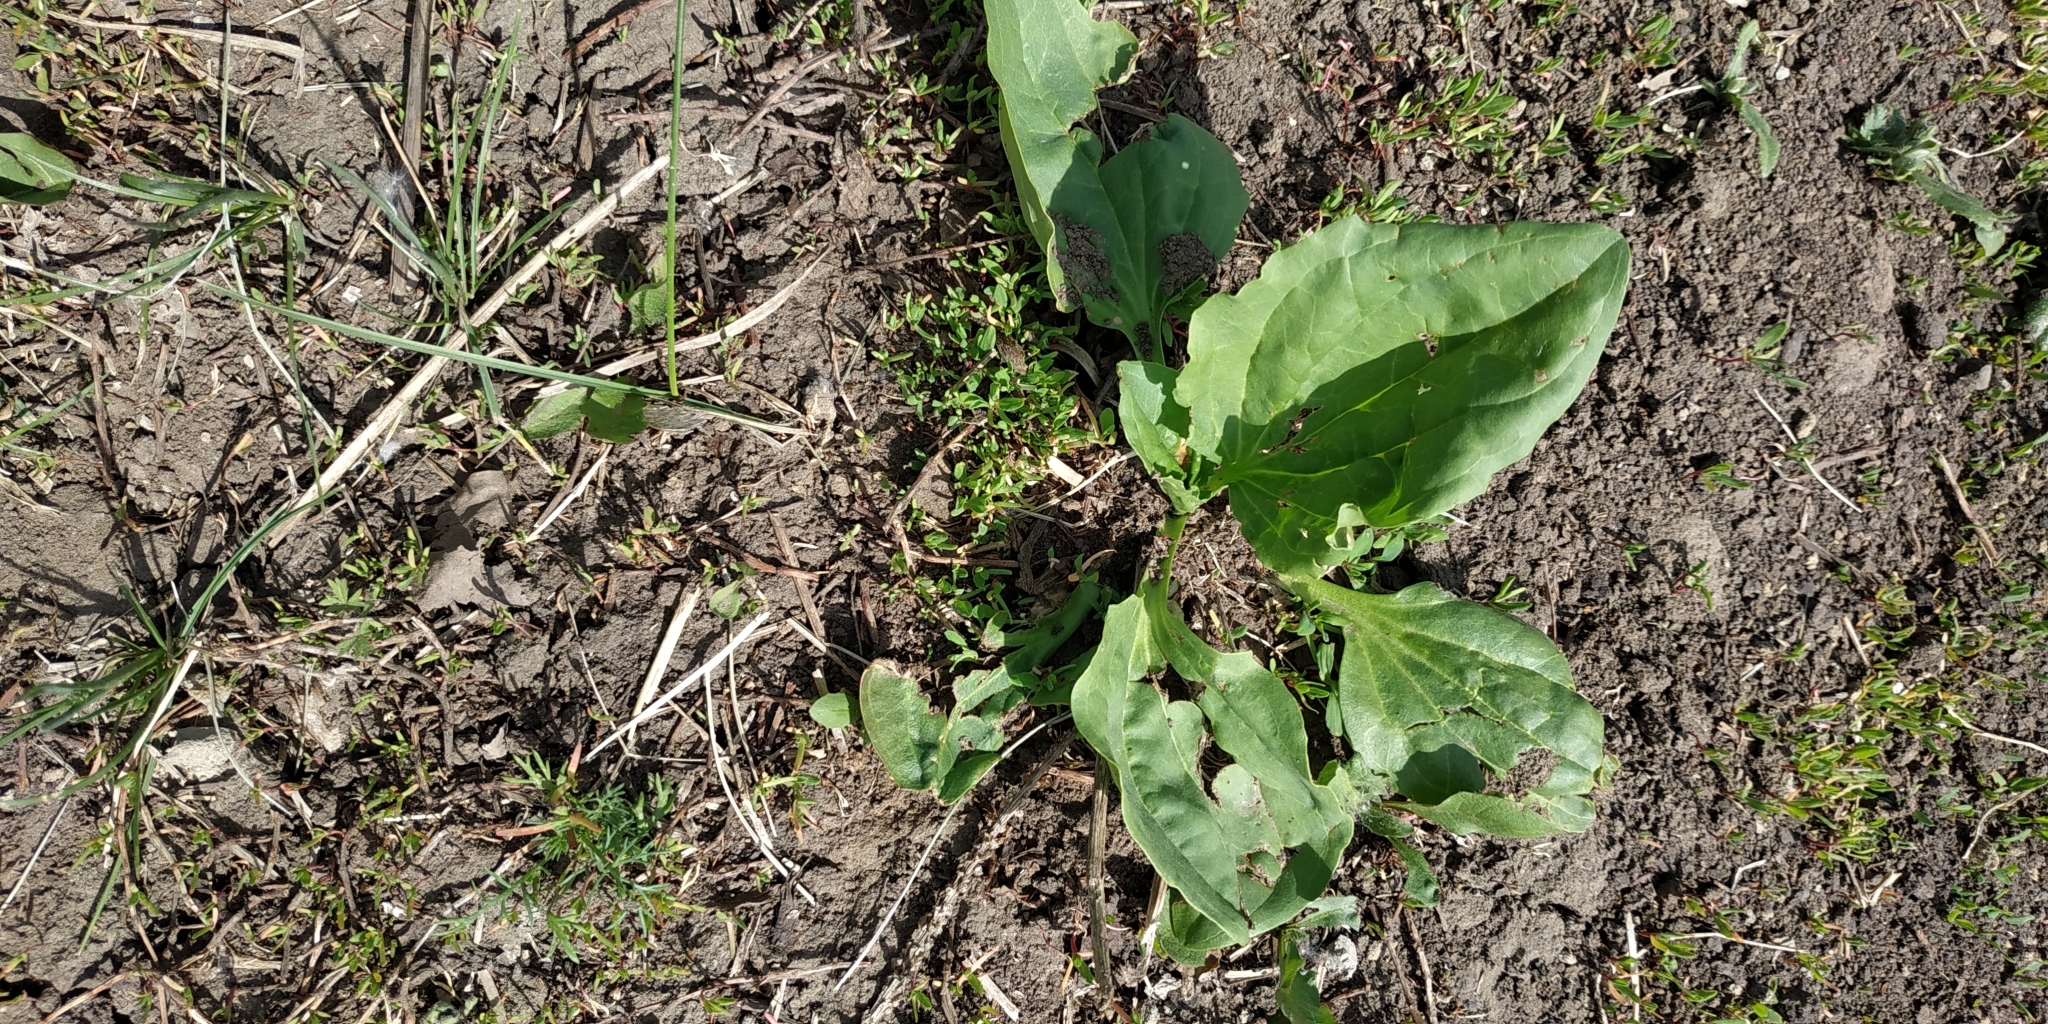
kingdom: Plantae
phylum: Tracheophyta
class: Magnoliopsida
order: Lamiales
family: Plantaginaceae
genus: Plantago
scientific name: Plantago major
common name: Common plantain
